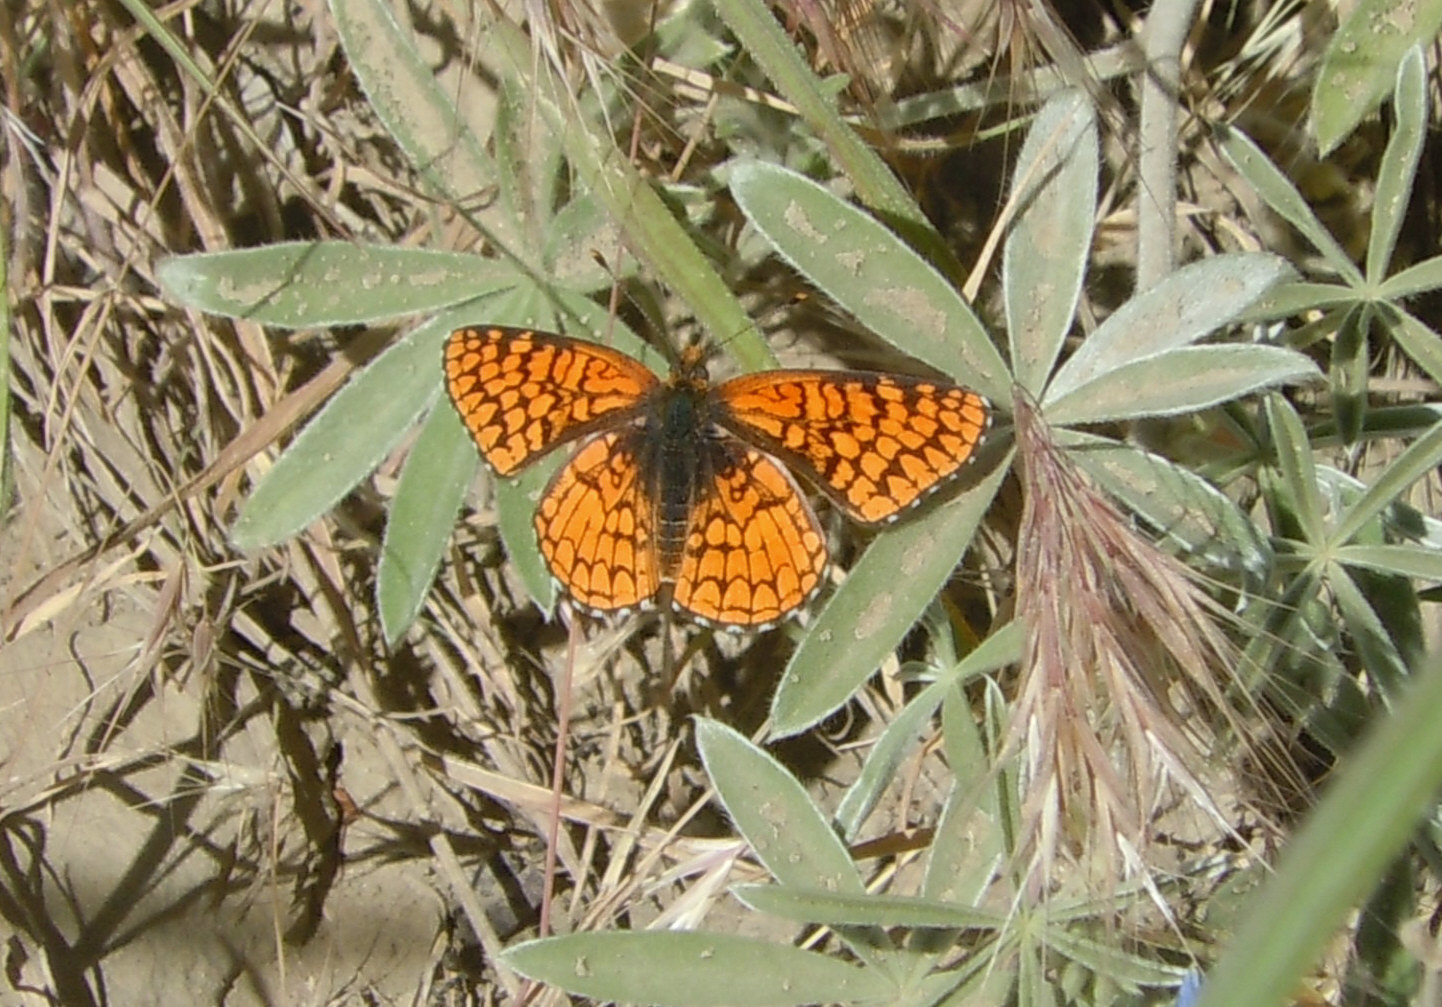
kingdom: Animalia
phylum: Arthropoda
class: Insecta
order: Lepidoptera
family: Nymphalidae
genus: Chlosyne
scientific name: Chlosyne acastus
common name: Sagebrush checkerspot
